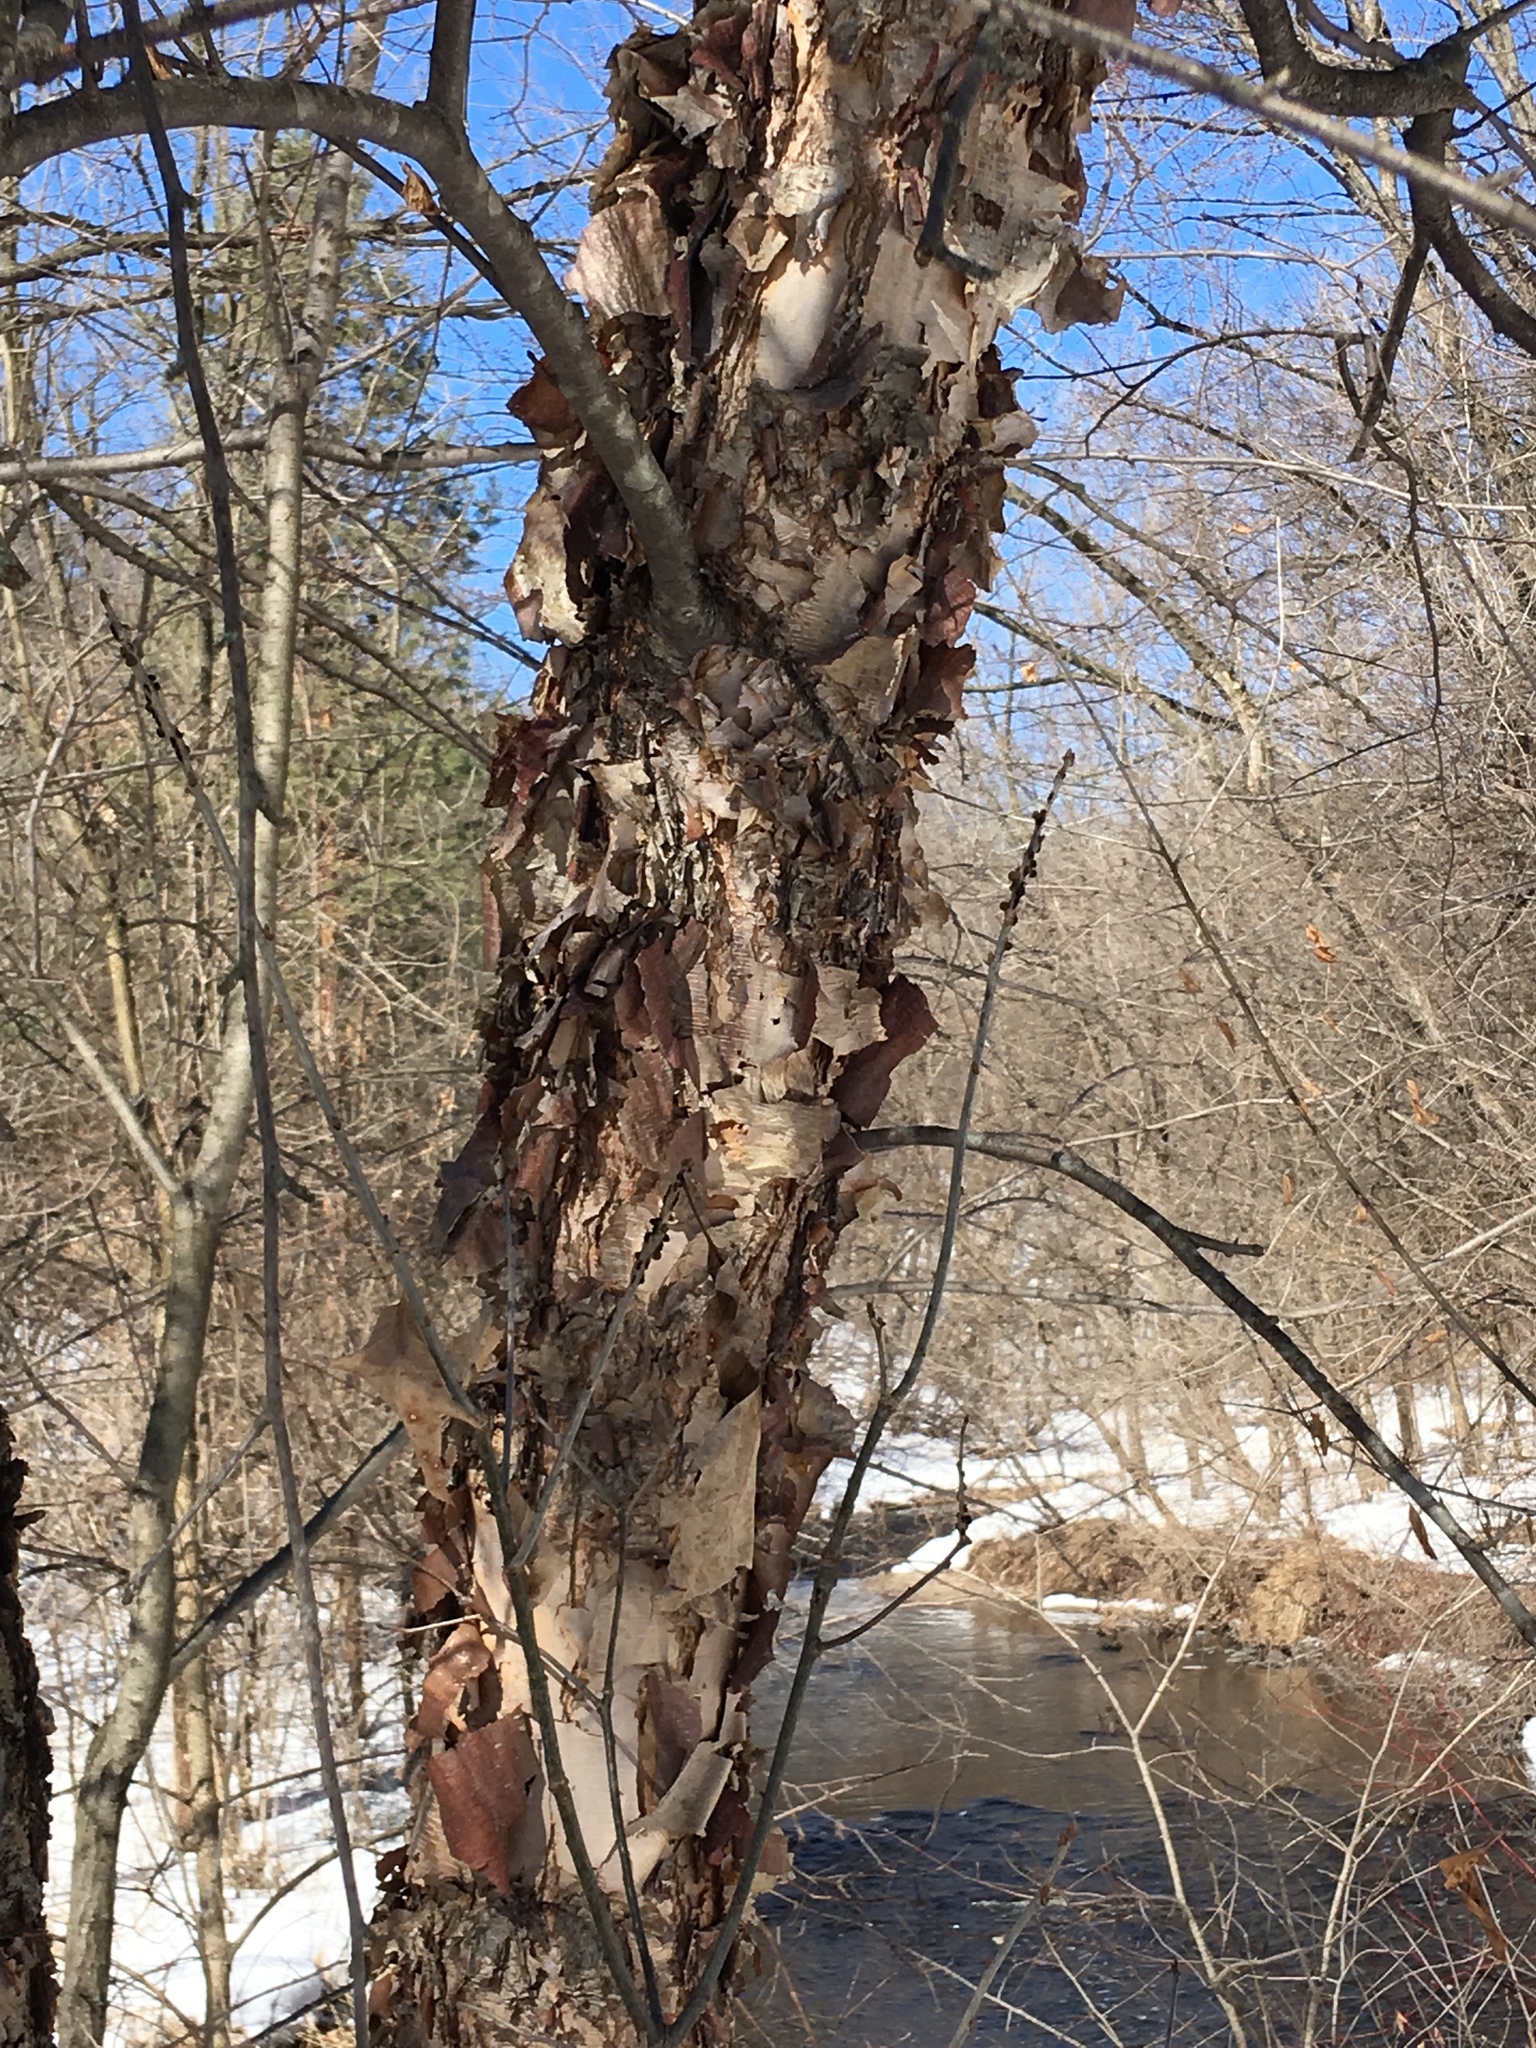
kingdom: Plantae
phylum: Tracheophyta
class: Magnoliopsida
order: Fagales
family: Betulaceae
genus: Betula
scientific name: Betula nigra
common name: Black birch
